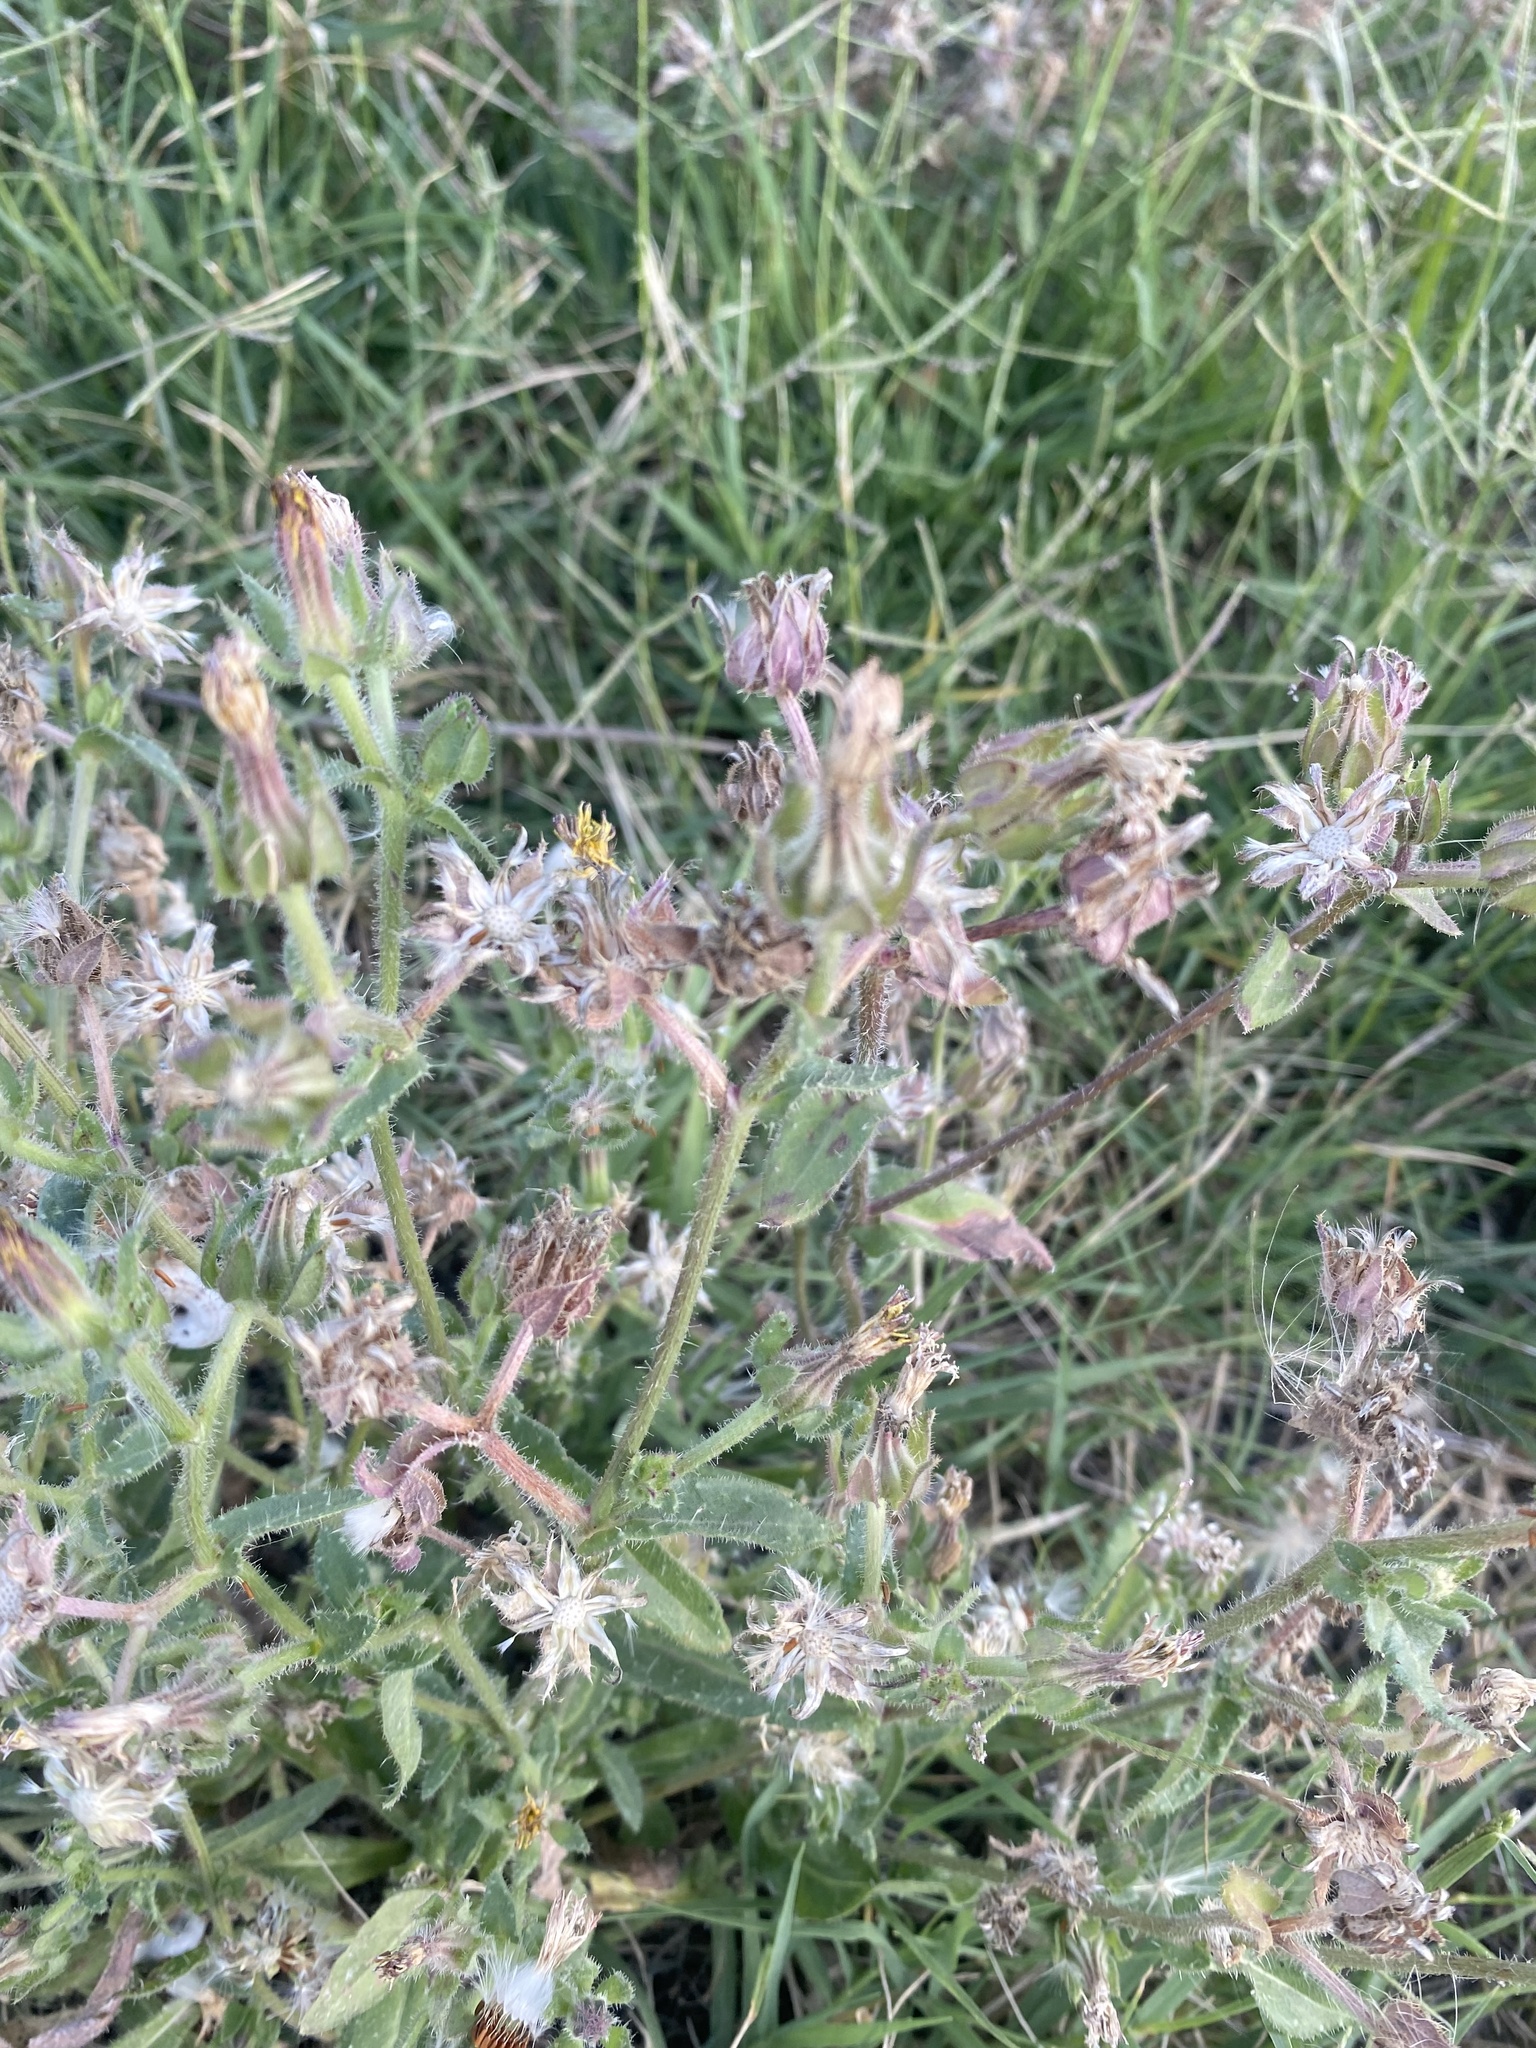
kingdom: Plantae
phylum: Tracheophyta
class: Magnoliopsida
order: Asterales
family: Asteraceae
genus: Helminthotheca
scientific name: Helminthotheca echioides
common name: Ox-tongue
